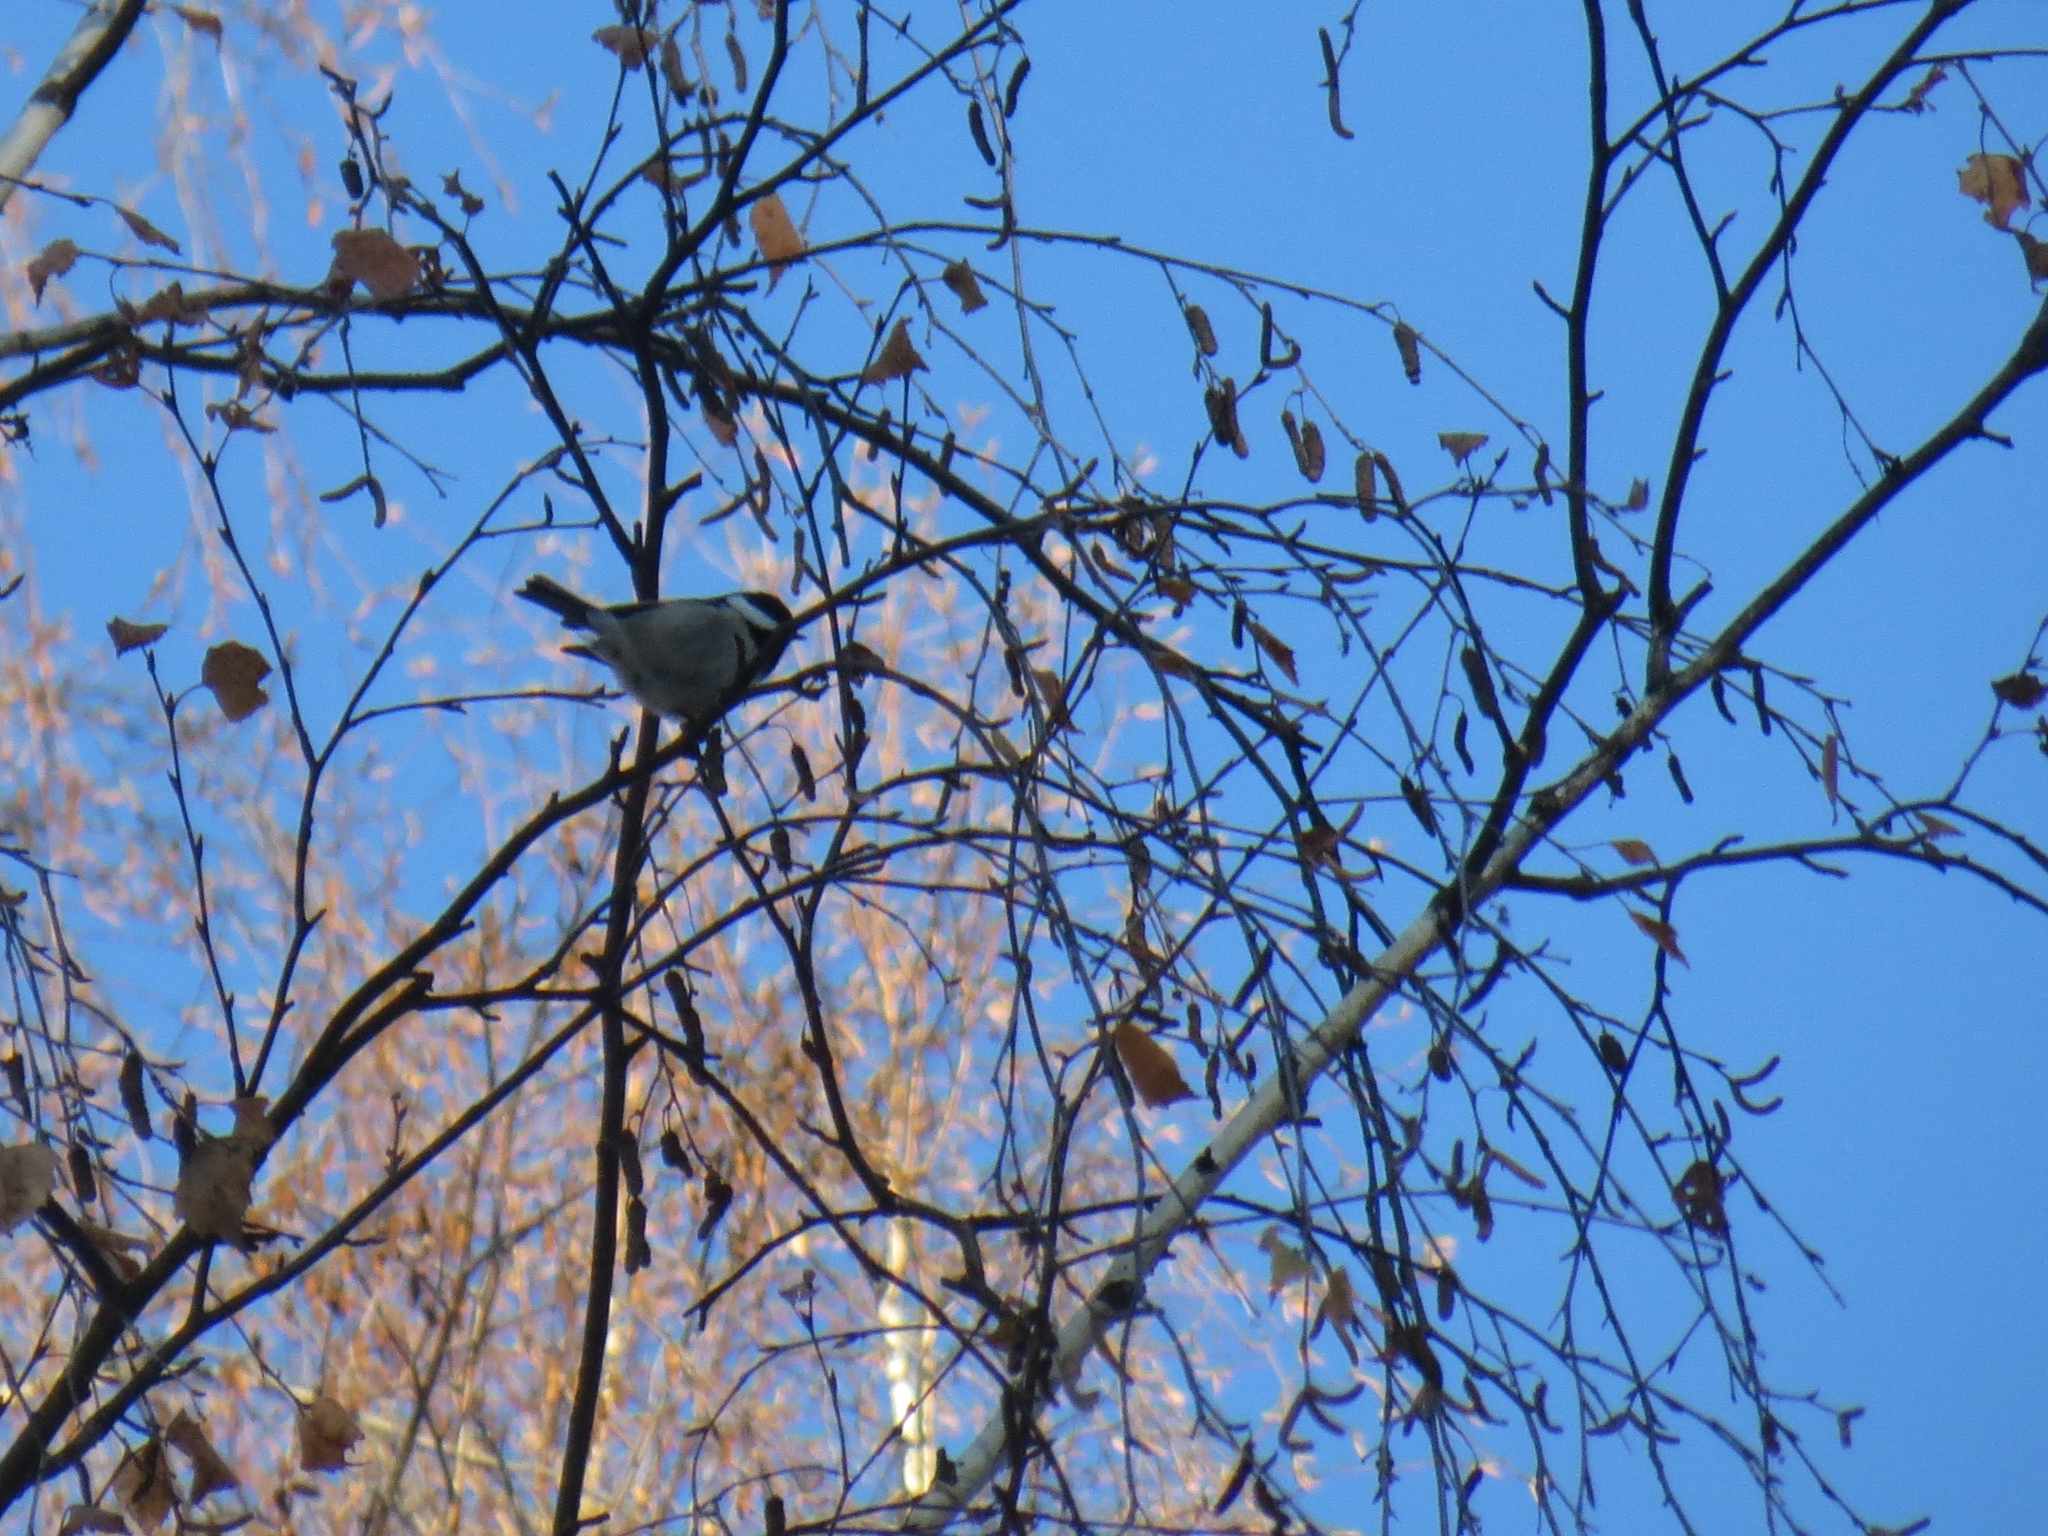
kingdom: Animalia
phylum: Chordata
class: Aves
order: Passeriformes
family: Paridae
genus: Periparus
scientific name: Periparus ater
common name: Coal tit
